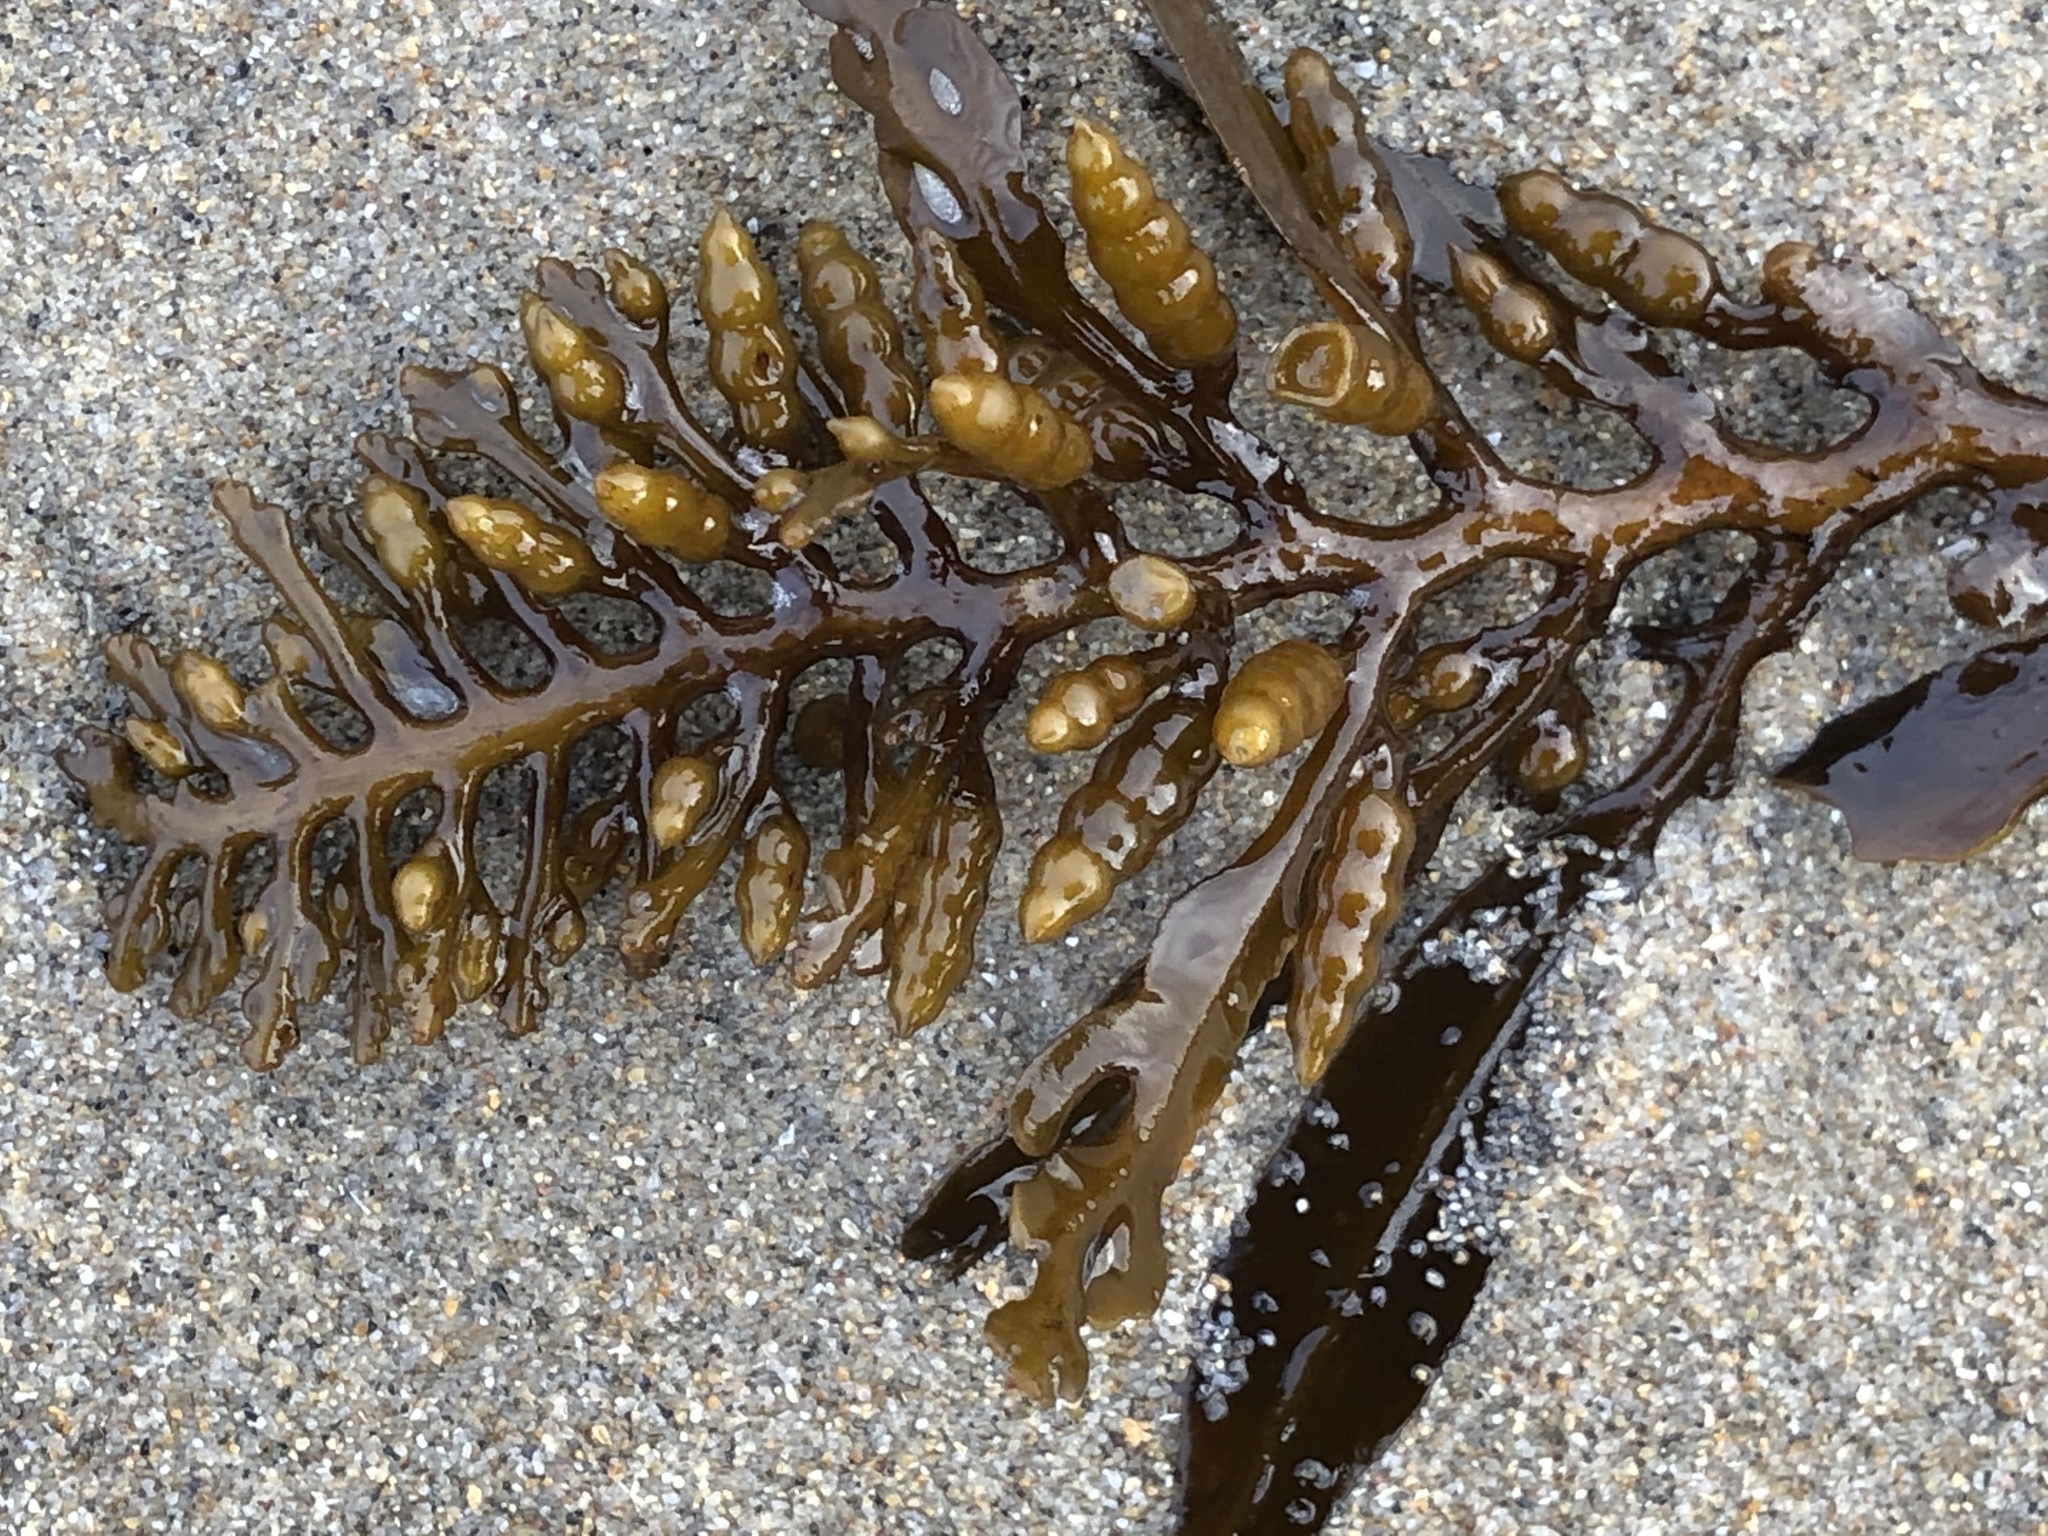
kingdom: Chromista
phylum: Ochrophyta
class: Phaeophyceae
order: Fucales
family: Sargassaceae
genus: Stephanocystis
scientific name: Stephanocystis
